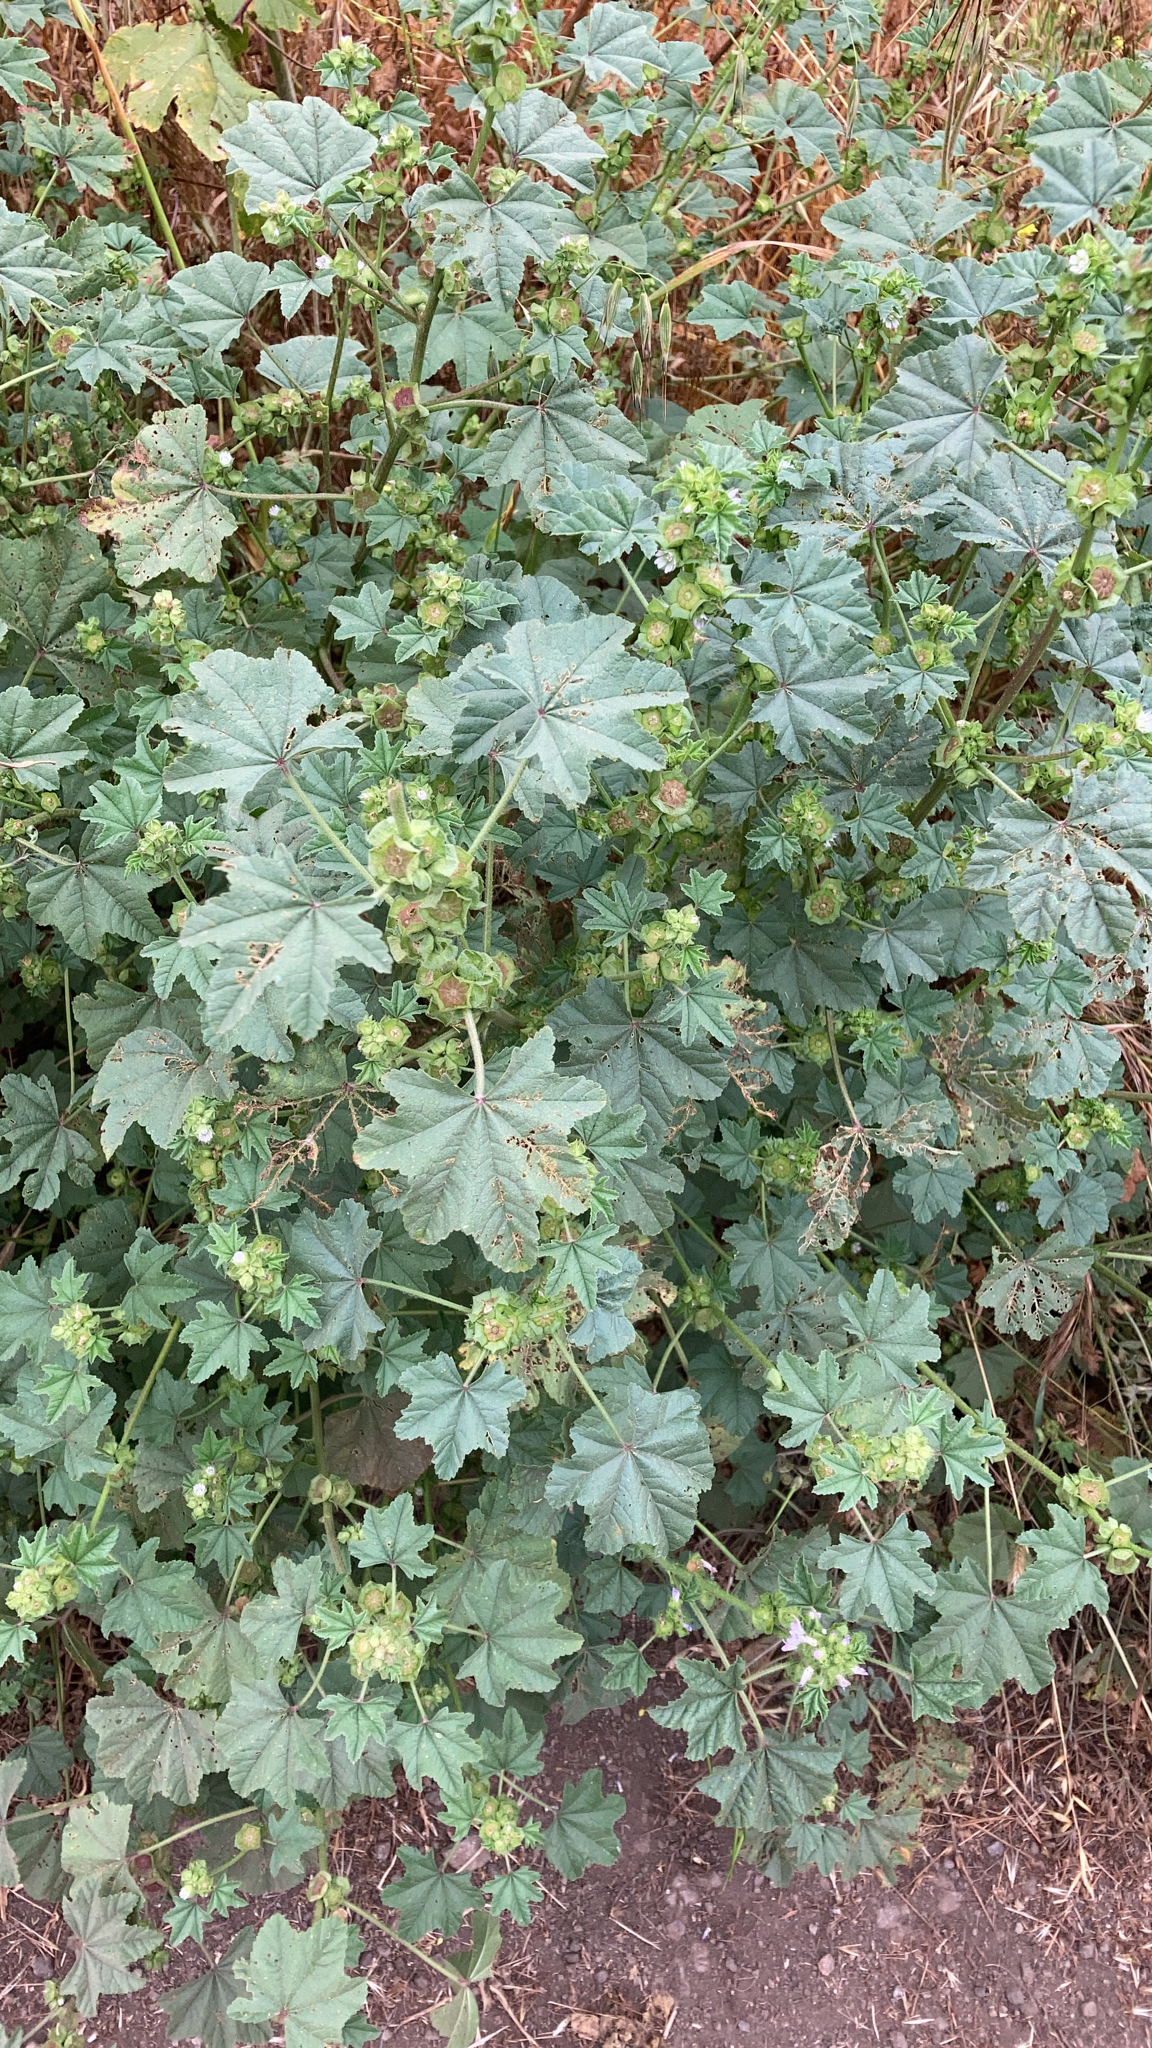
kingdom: Plantae
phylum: Tracheophyta
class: Magnoliopsida
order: Malvales
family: Malvaceae
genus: Malva
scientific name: Malva parviflora
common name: Least mallow
